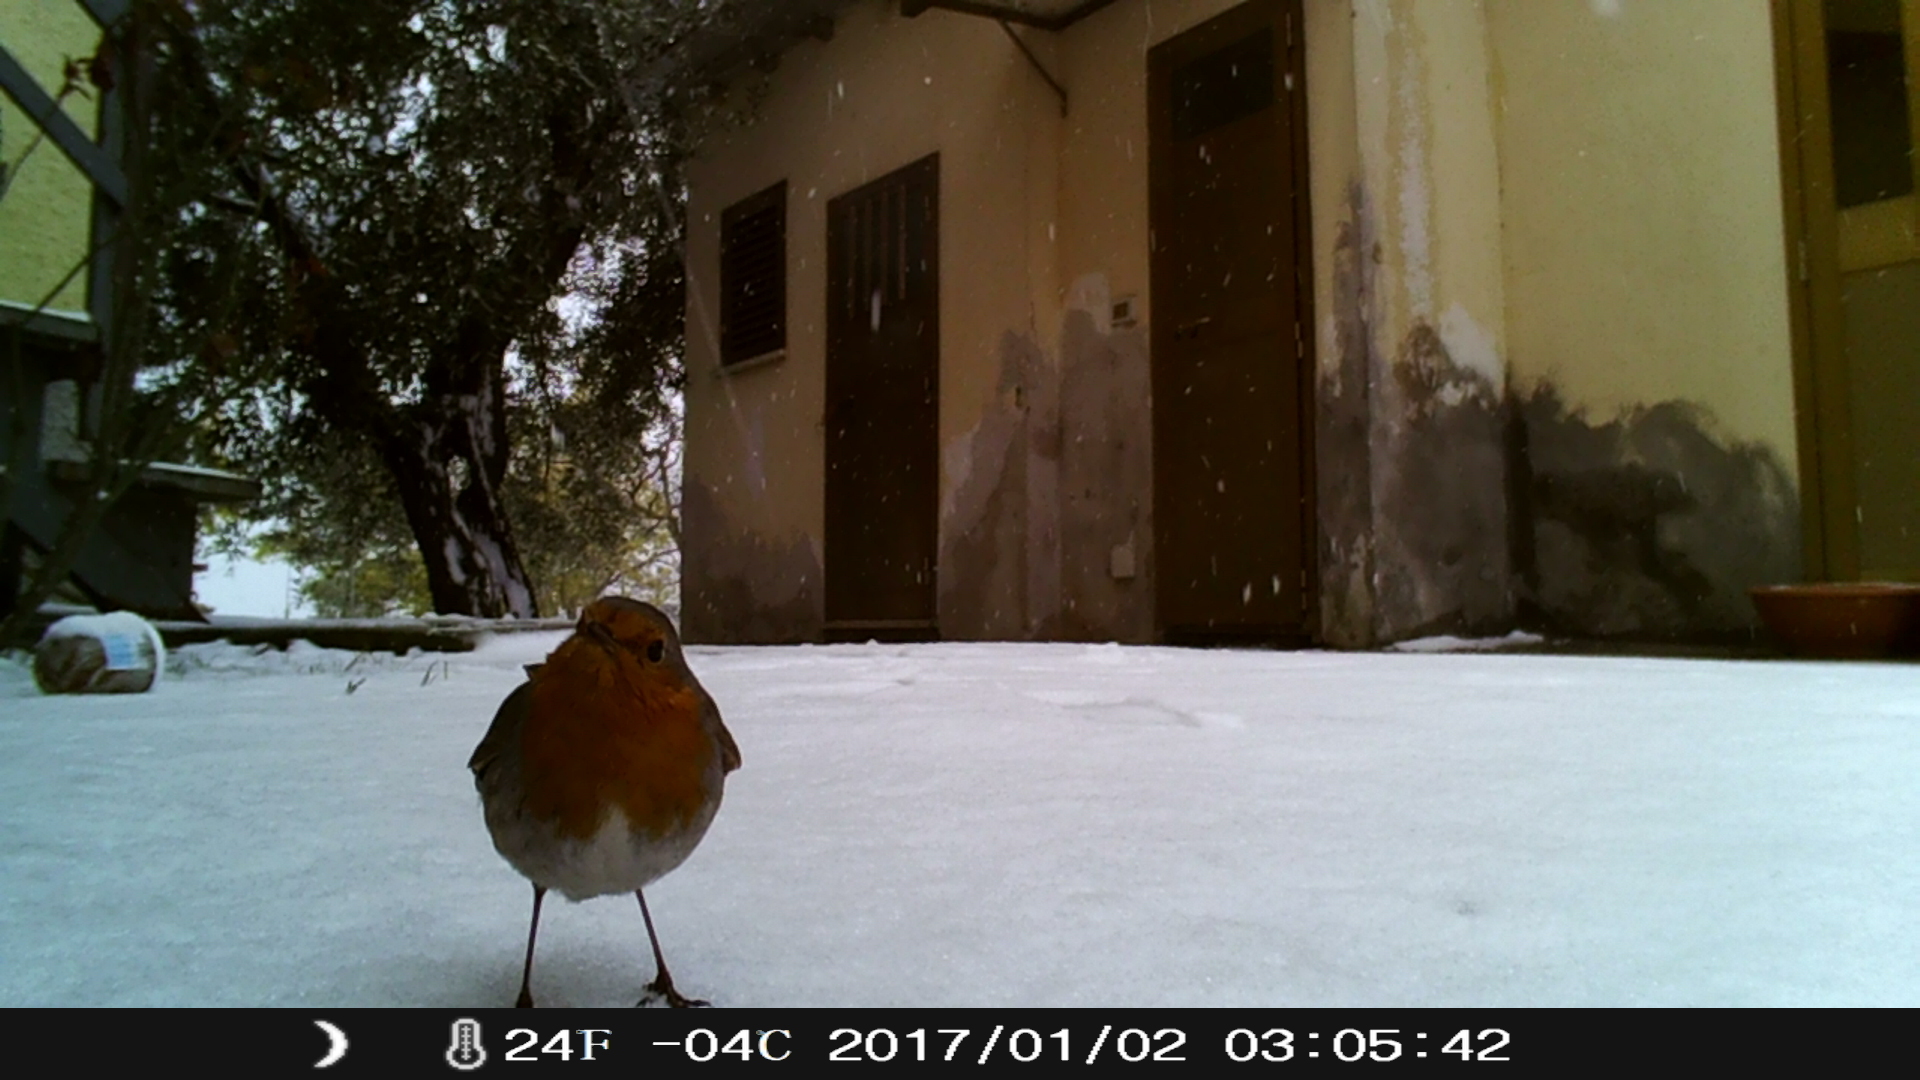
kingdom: Animalia
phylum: Chordata
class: Aves
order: Passeriformes
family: Muscicapidae
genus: Erithacus
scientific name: Erithacus rubecula
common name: European robin
